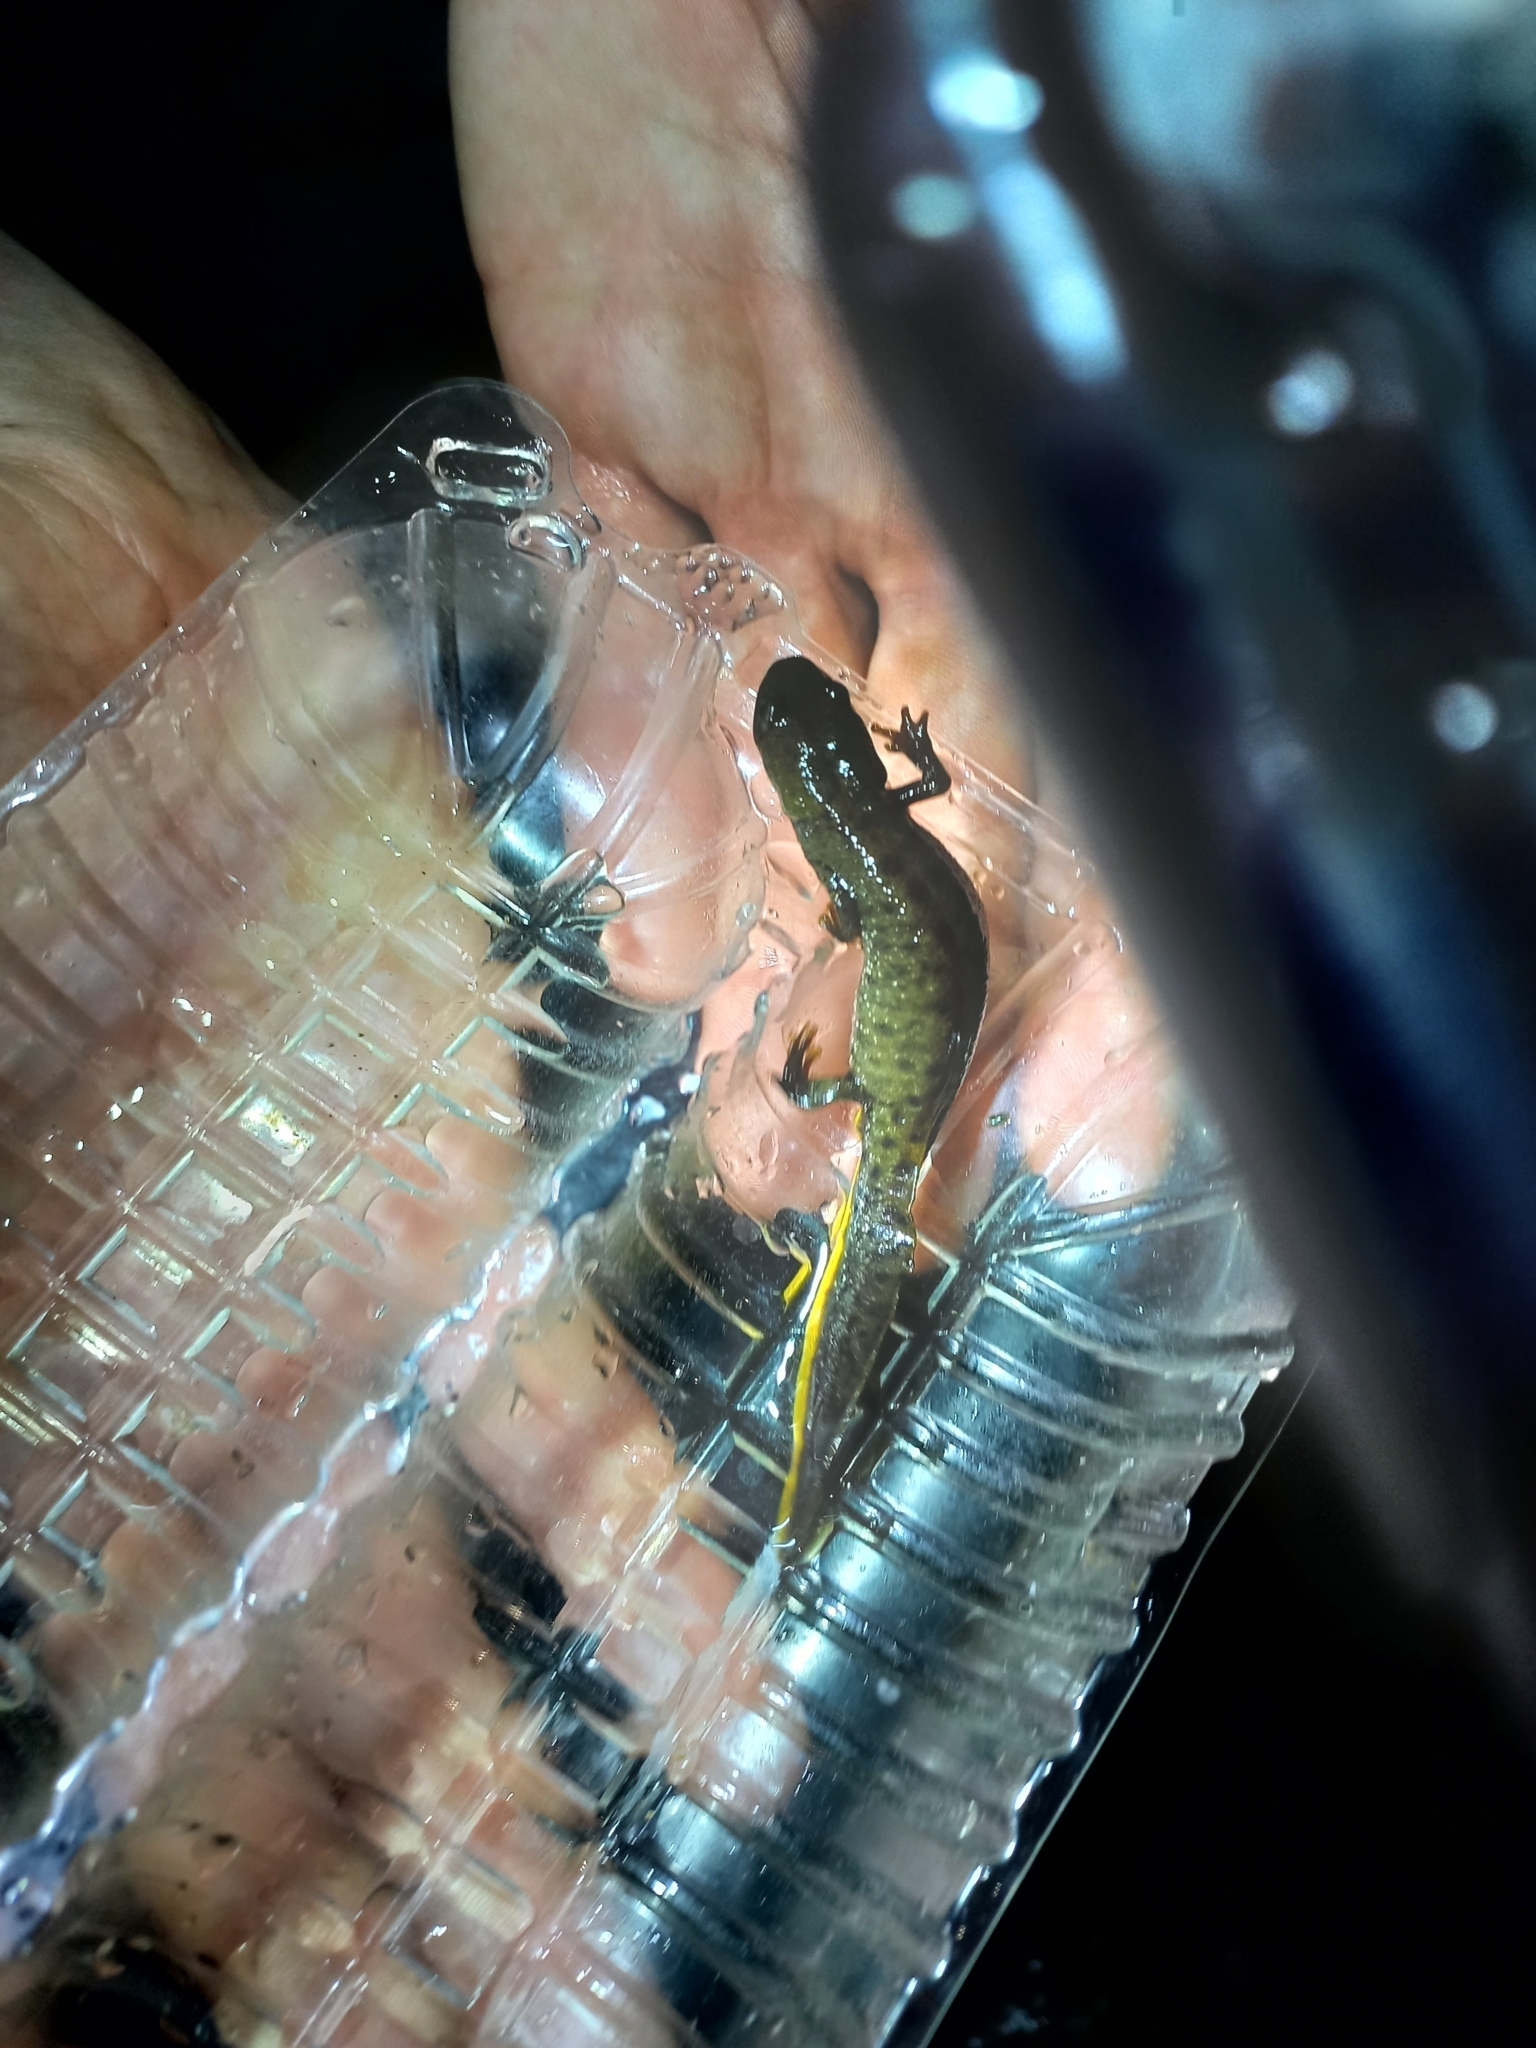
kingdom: Animalia
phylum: Chordata
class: Amphibia
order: Caudata
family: Salamandridae
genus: Triturus
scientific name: Triturus cristatus
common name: Crested newt
